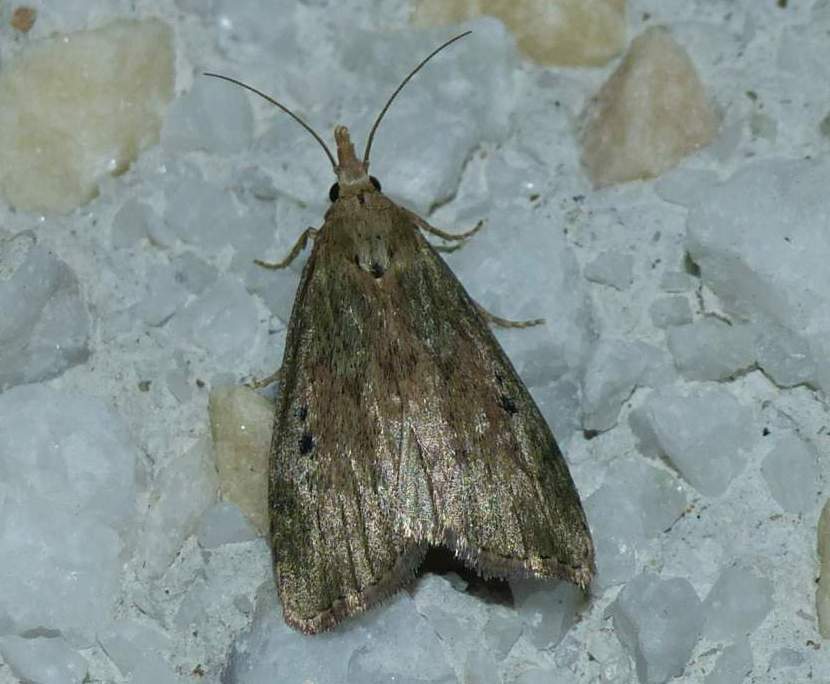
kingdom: Animalia
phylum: Arthropoda
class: Insecta
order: Lepidoptera
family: Pyralidae
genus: Aphomia
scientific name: Aphomia sociella
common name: Bee moth
